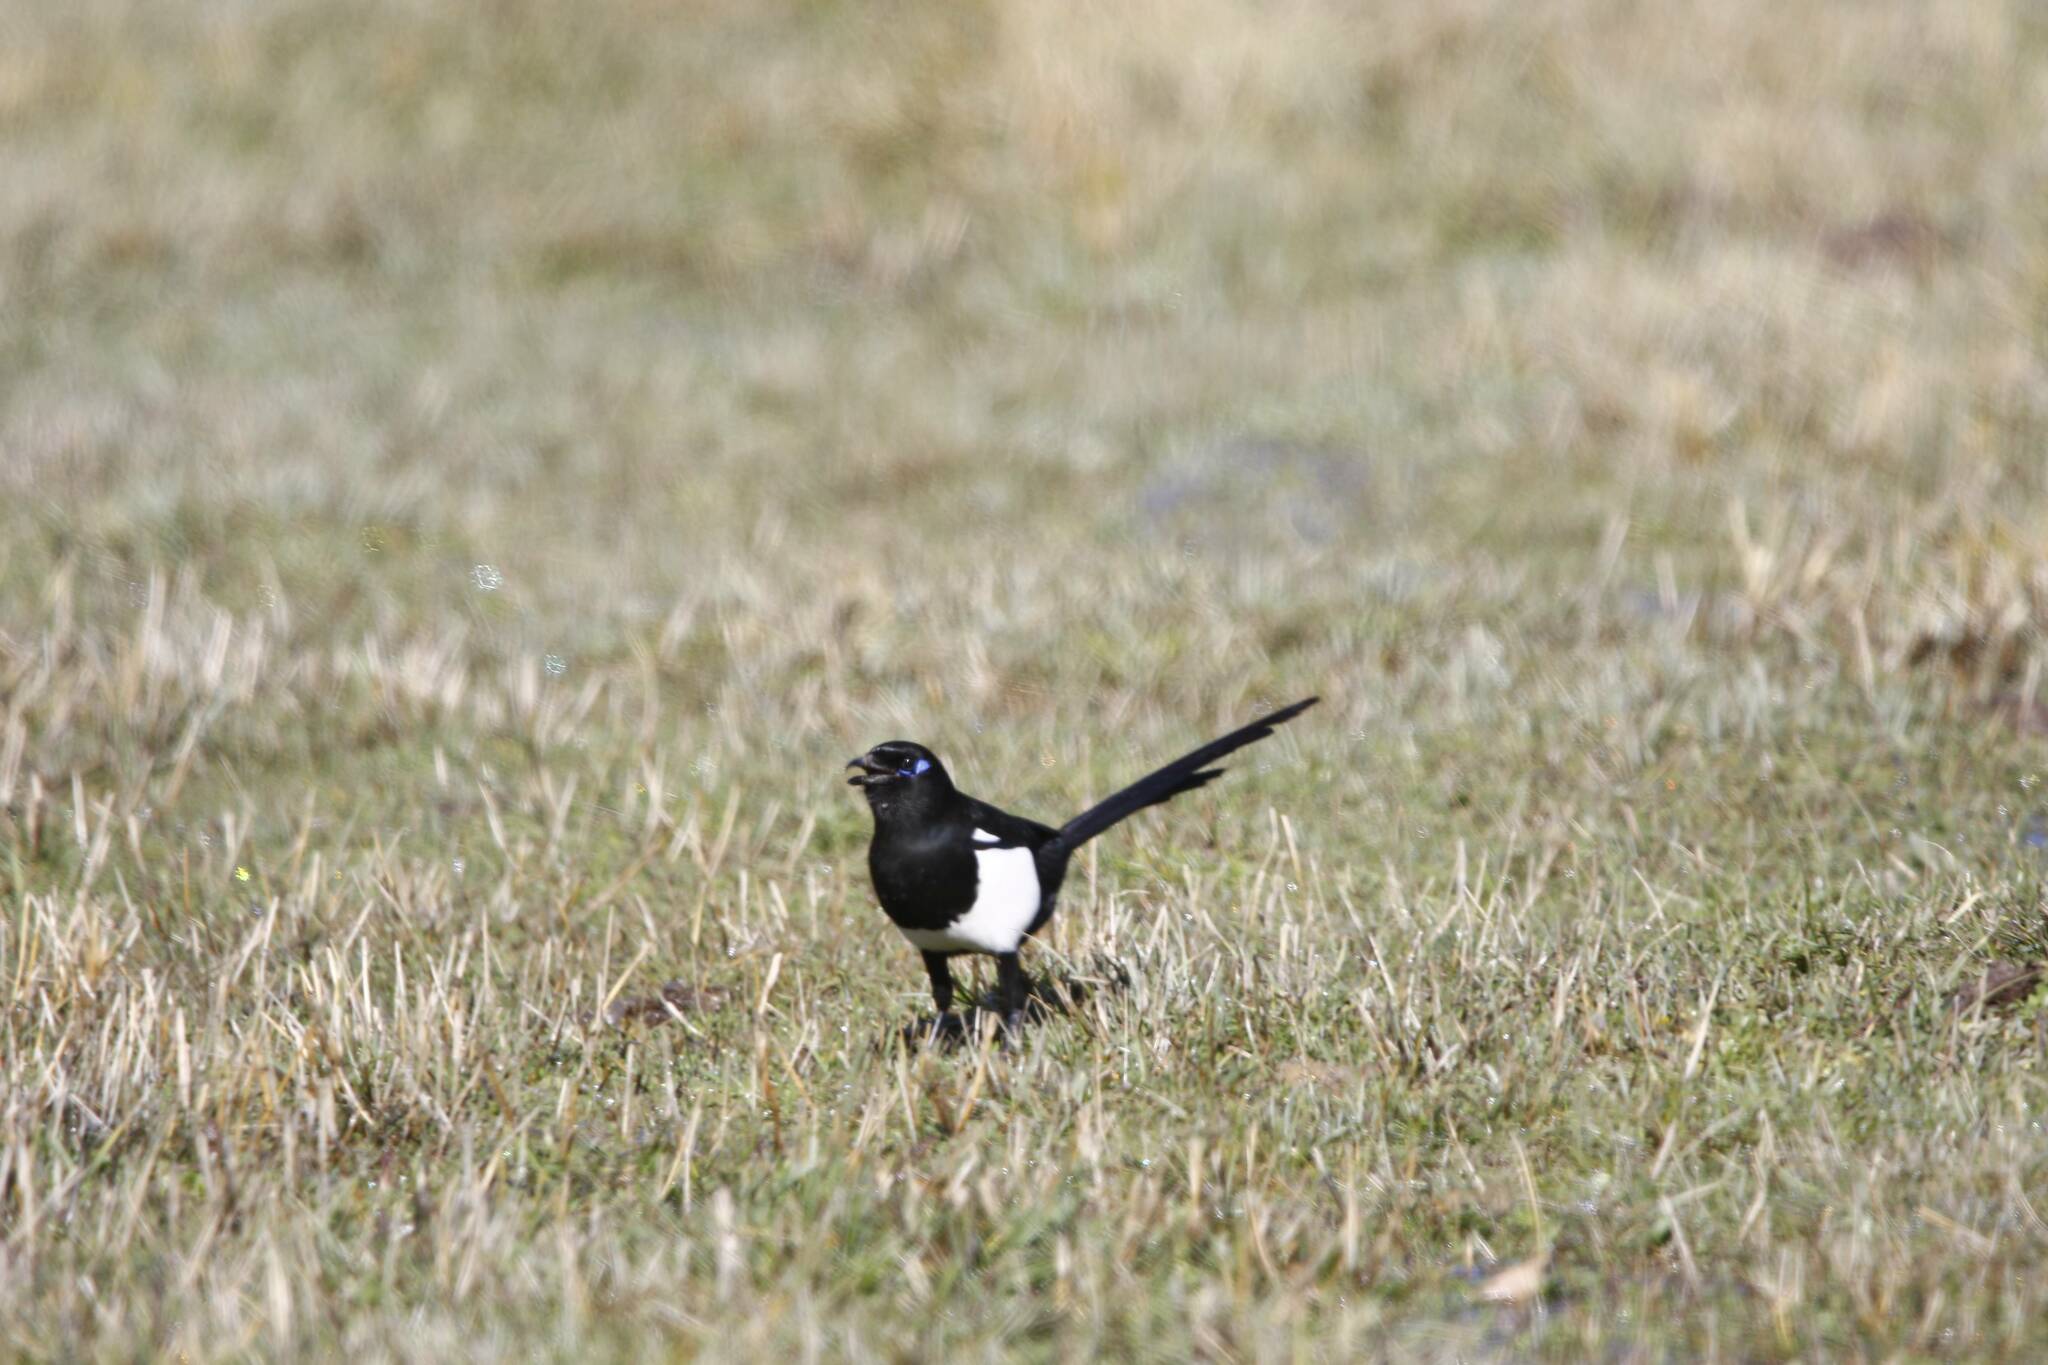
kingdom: Animalia
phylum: Chordata
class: Aves
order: Passeriformes
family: Corvidae
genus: Pica
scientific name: Pica mauritanica
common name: Maghreb magpie
